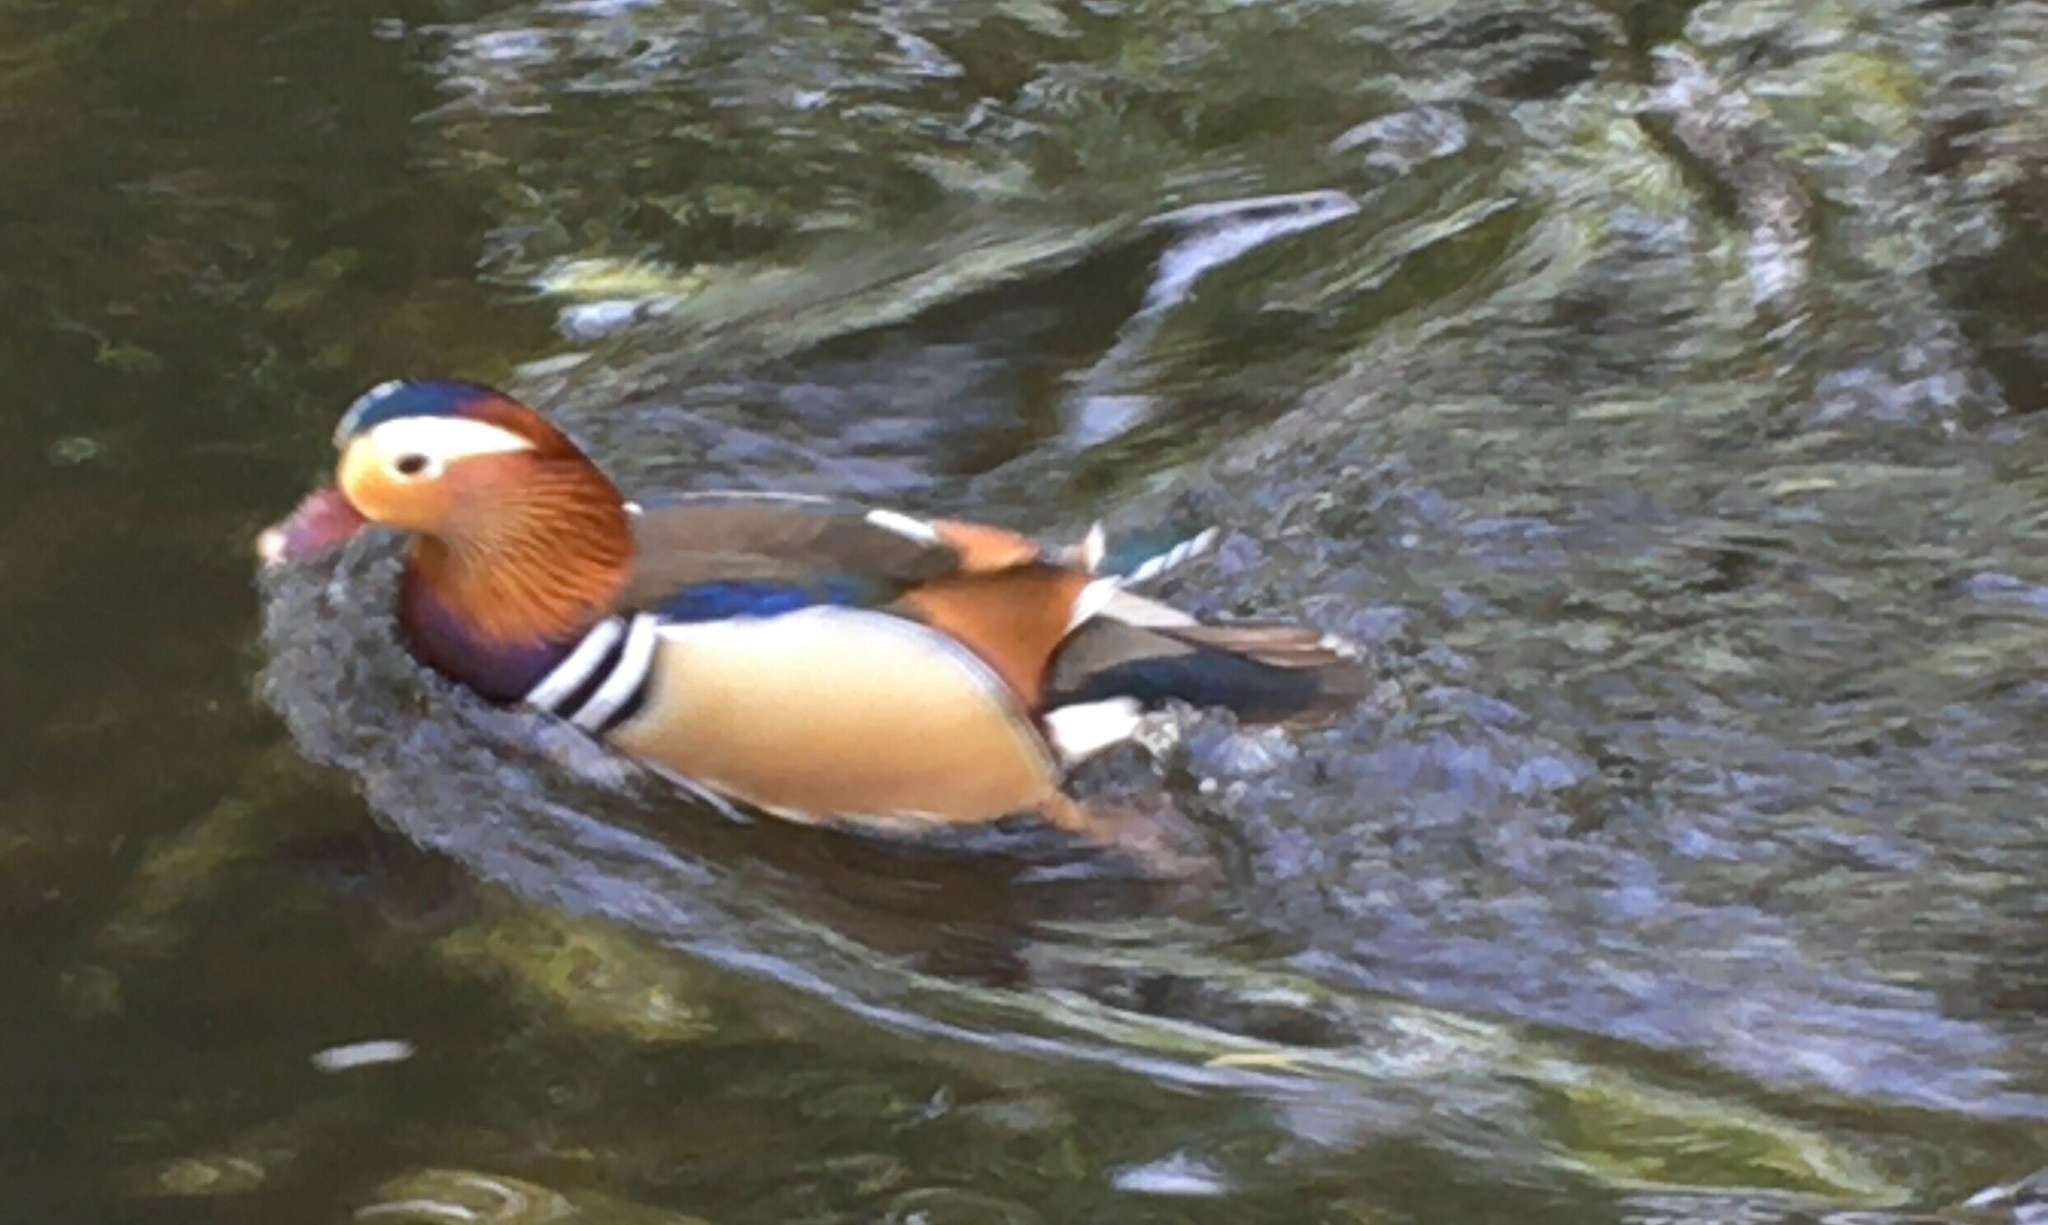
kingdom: Animalia
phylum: Chordata
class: Aves
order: Anseriformes
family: Anatidae
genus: Aix
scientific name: Aix galericulata
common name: Mandarin duck
